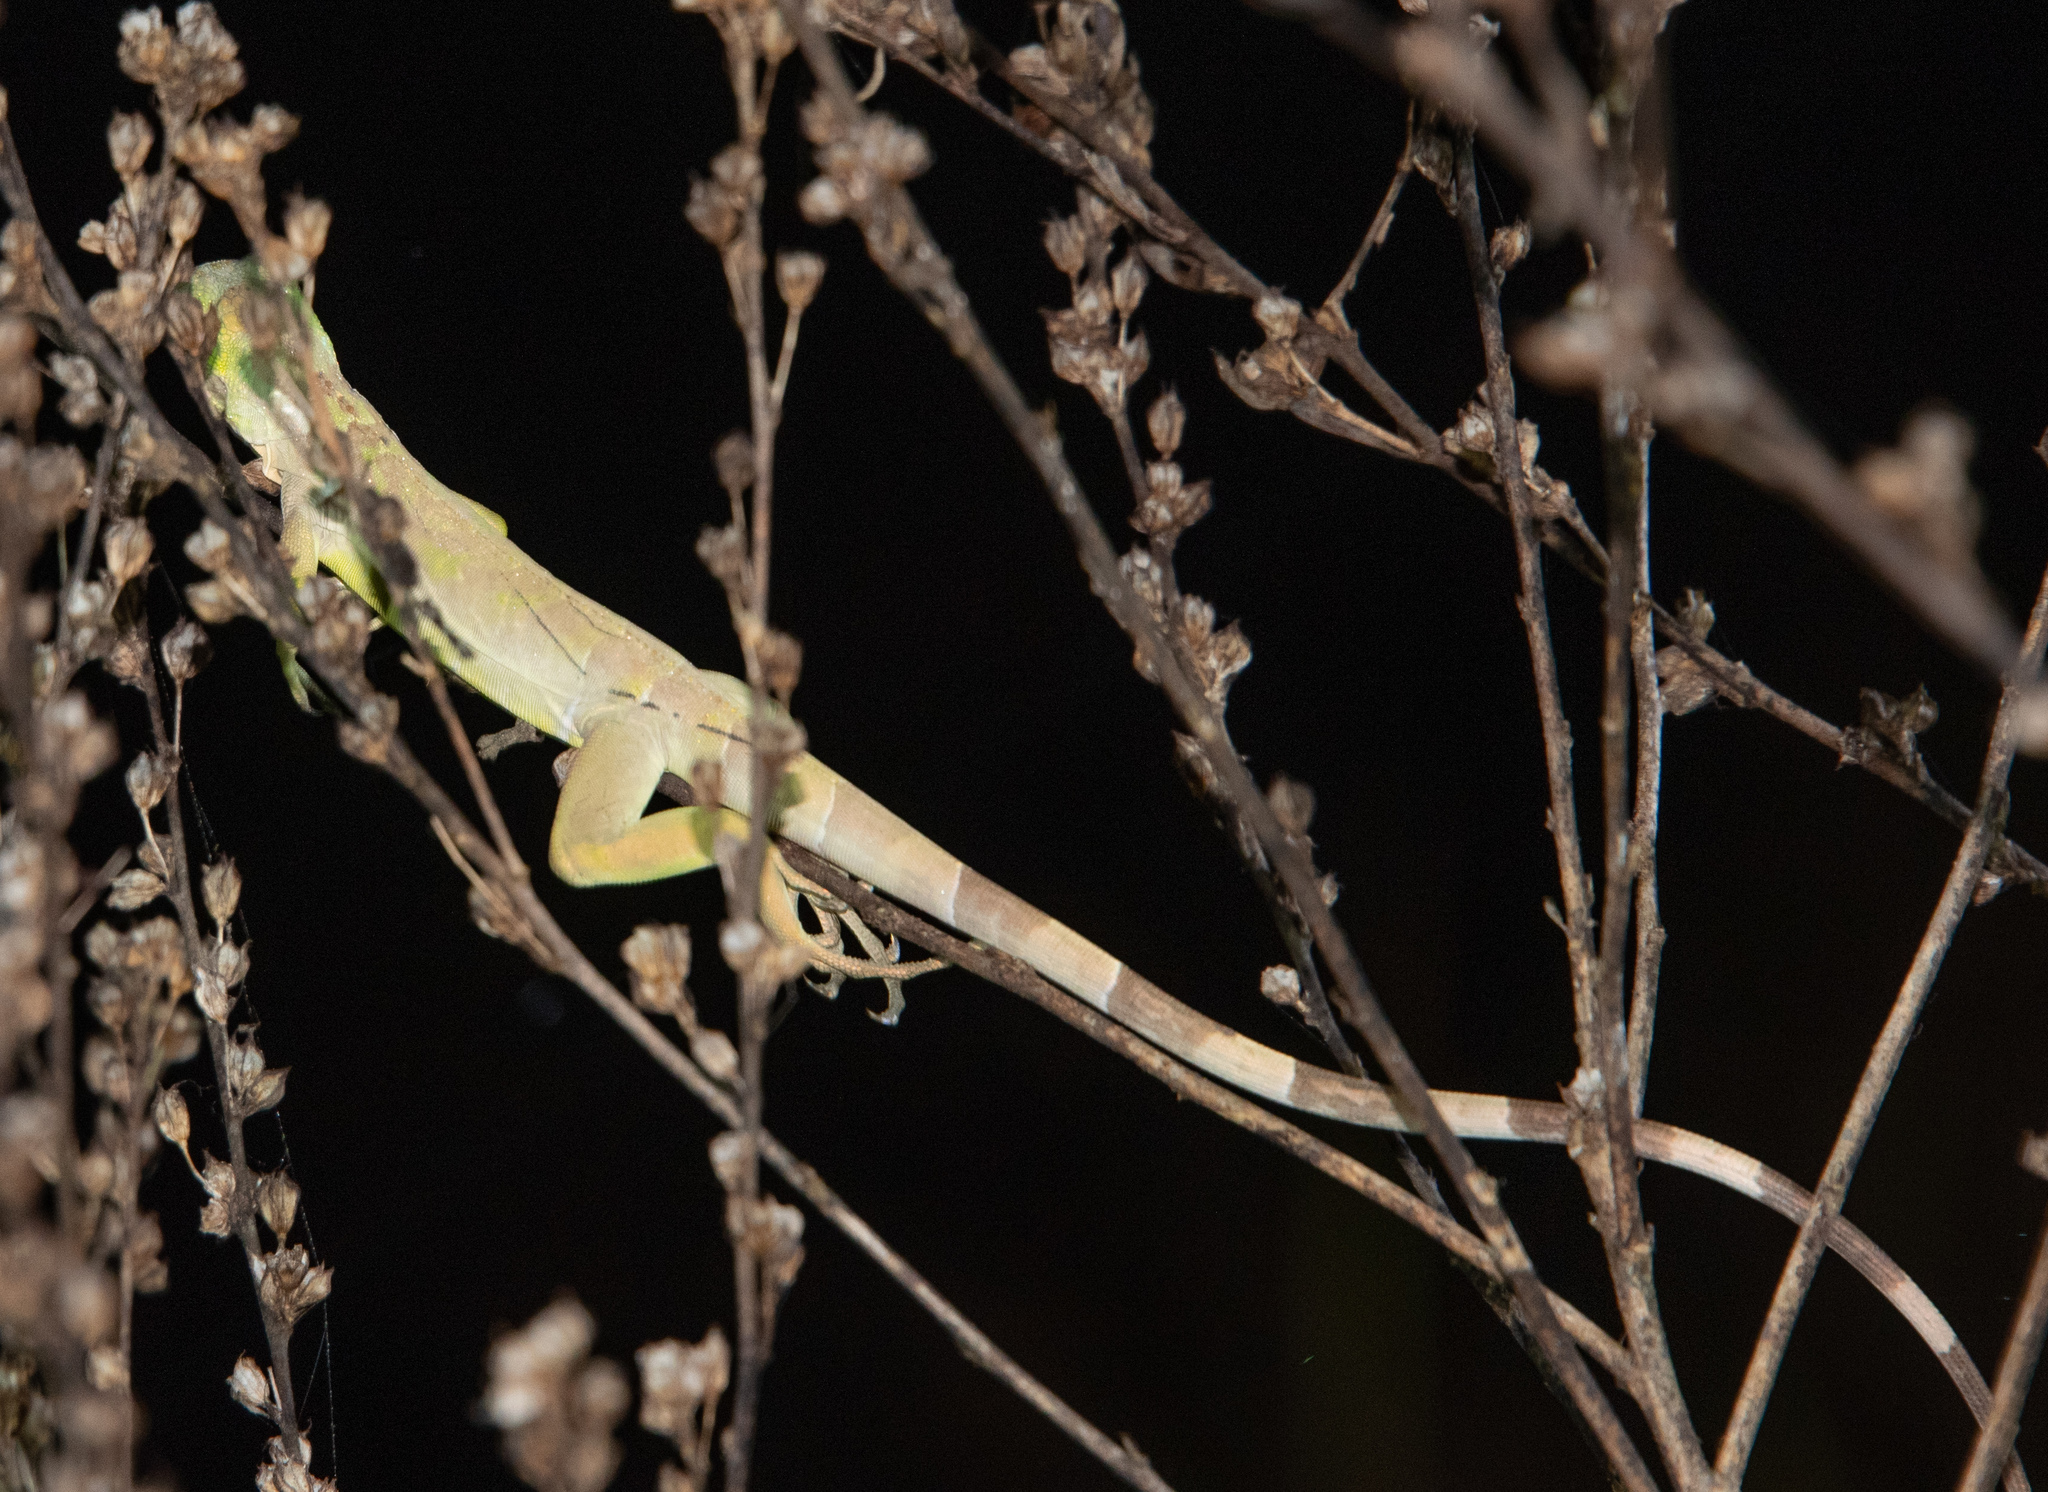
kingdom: Animalia
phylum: Chordata
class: Squamata
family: Iguanidae
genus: Iguana
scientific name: Iguana iguana
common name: Green iguana
